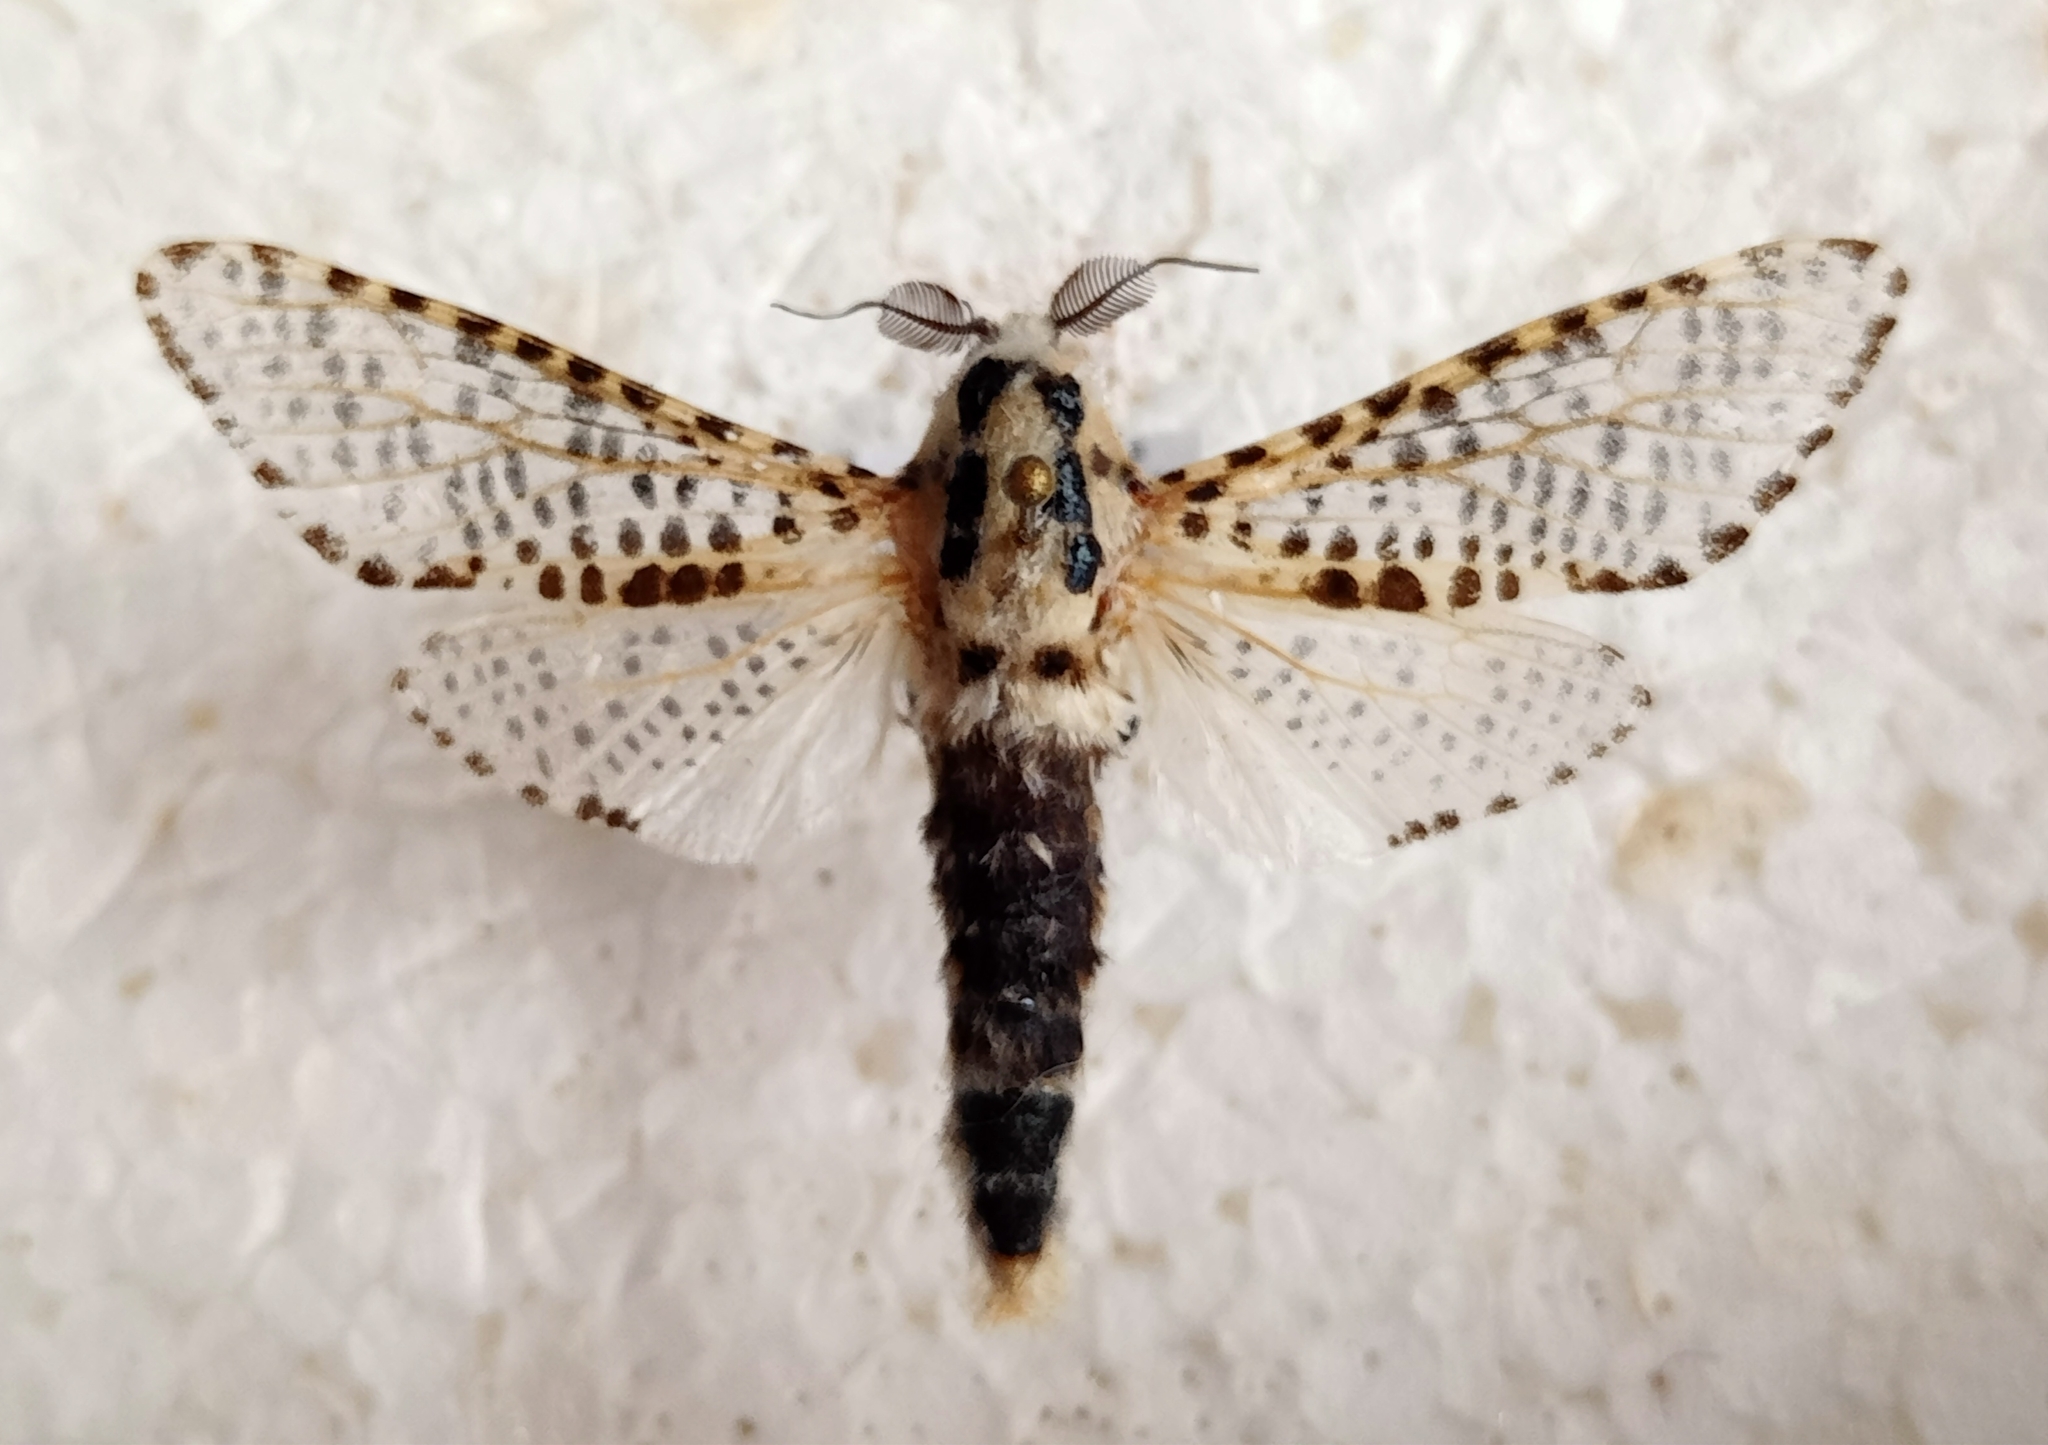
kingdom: Animalia
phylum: Arthropoda
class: Insecta
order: Lepidoptera
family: Cossidae
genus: Zeuzera
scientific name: Zeuzera pyrina
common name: Leopard moth
